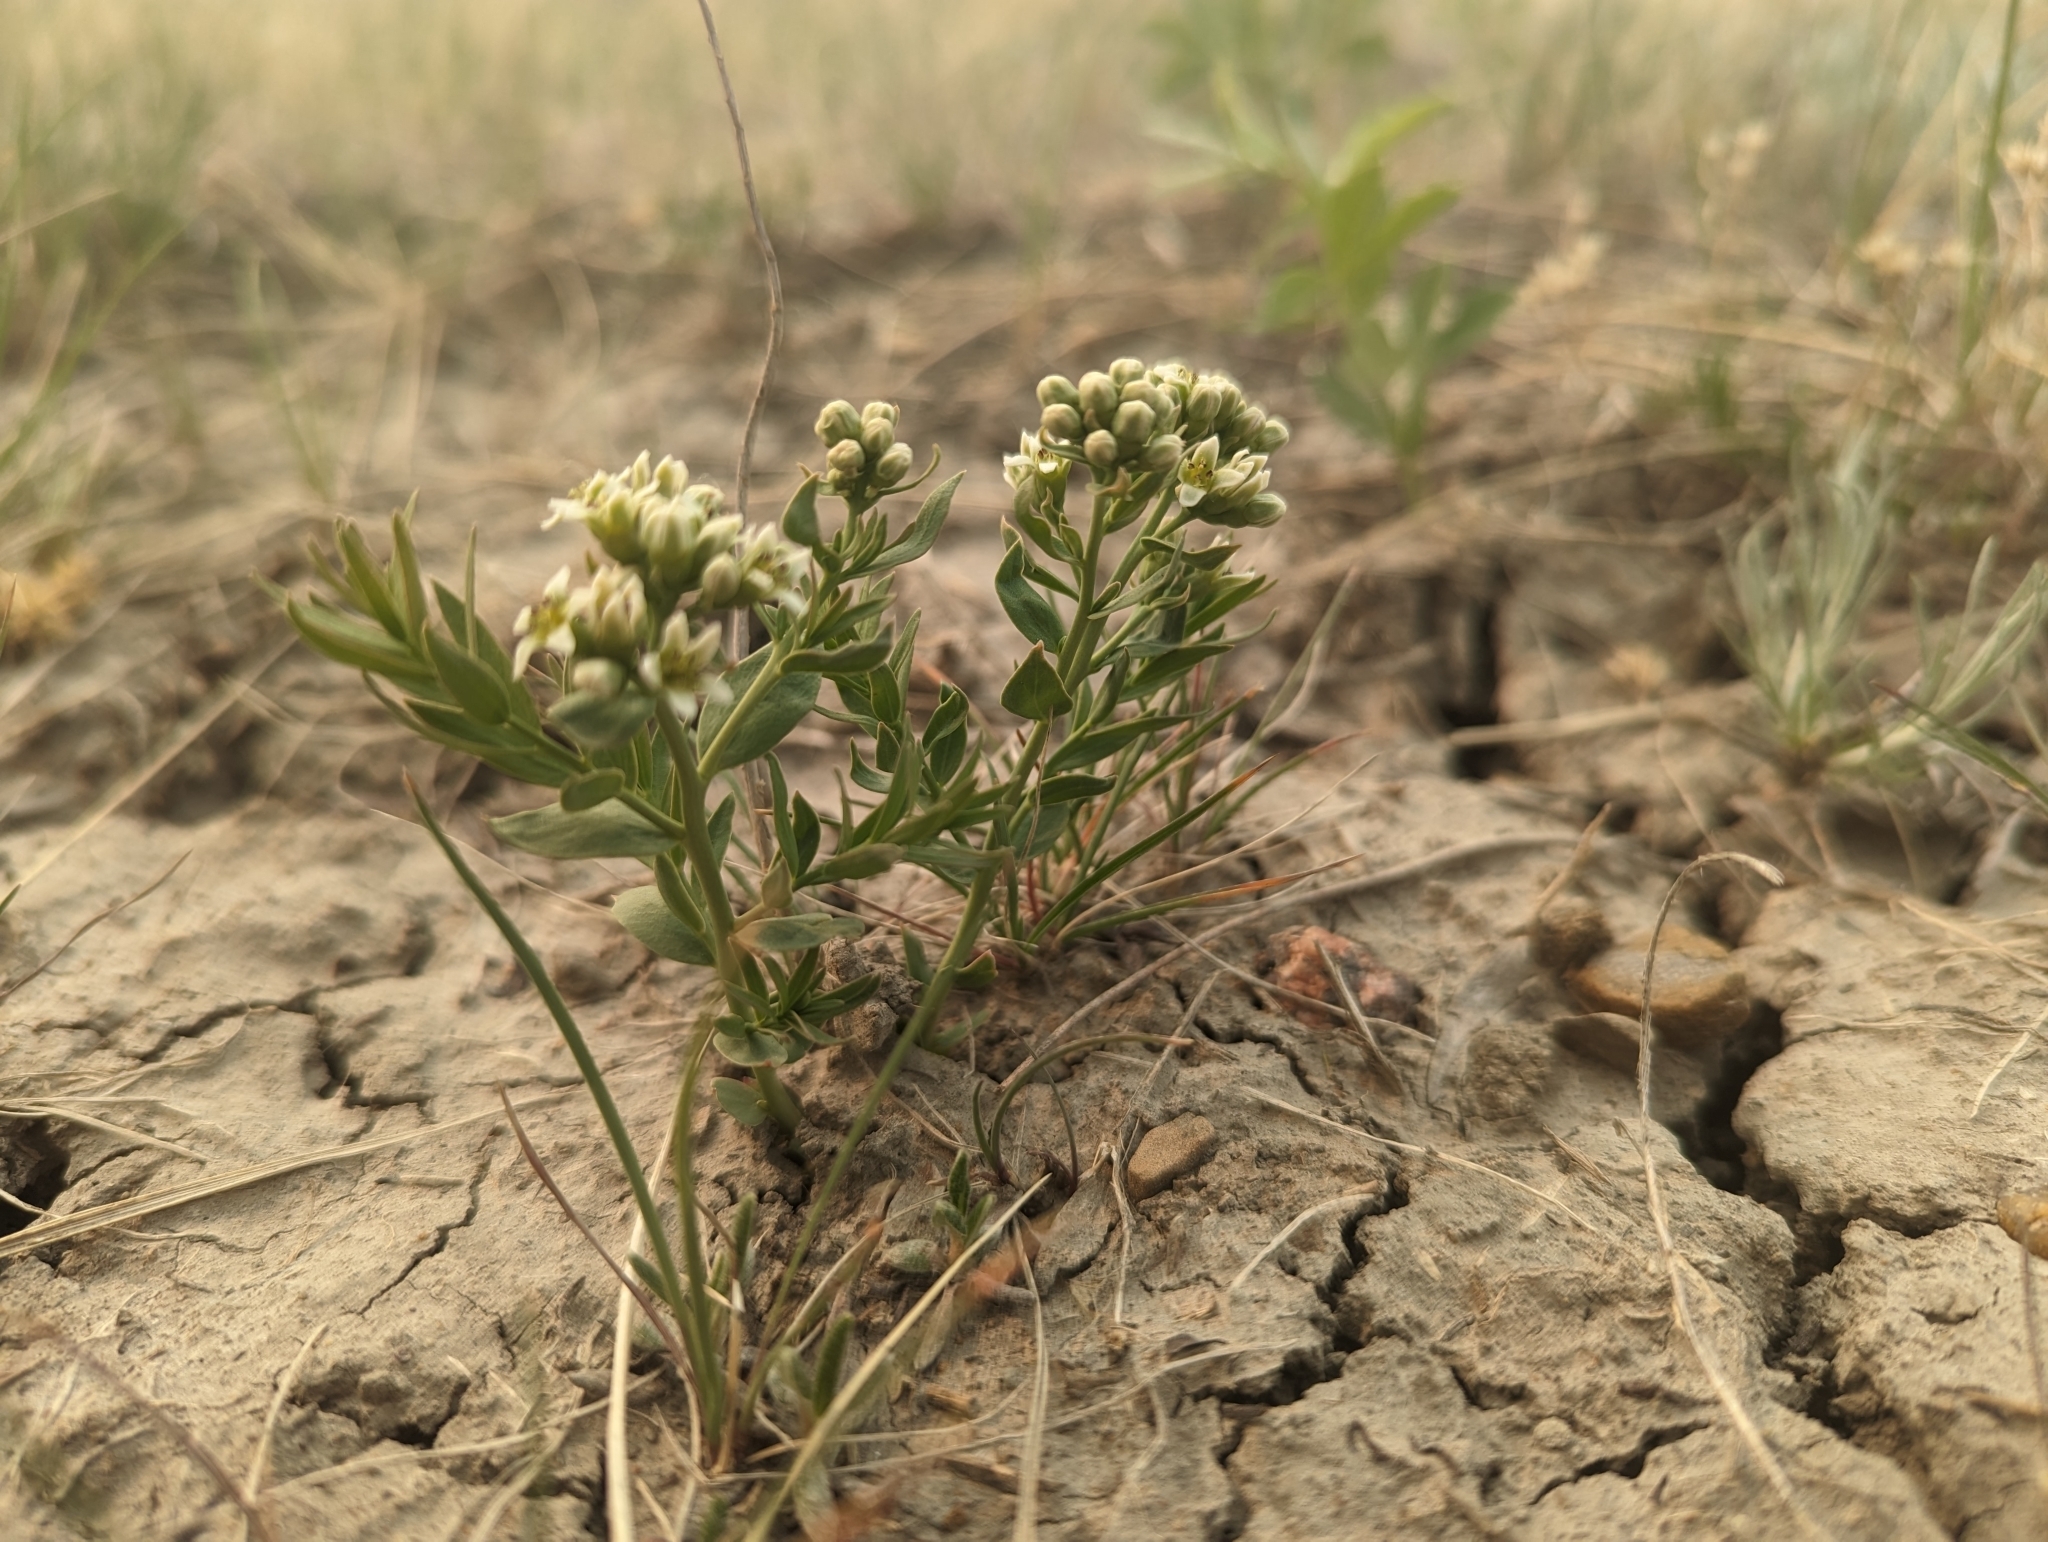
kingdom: Plantae
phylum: Tracheophyta
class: Magnoliopsida
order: Santalales
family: Comandraceae
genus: Comandra
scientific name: Comandra umbellata
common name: Bastard toadflax
